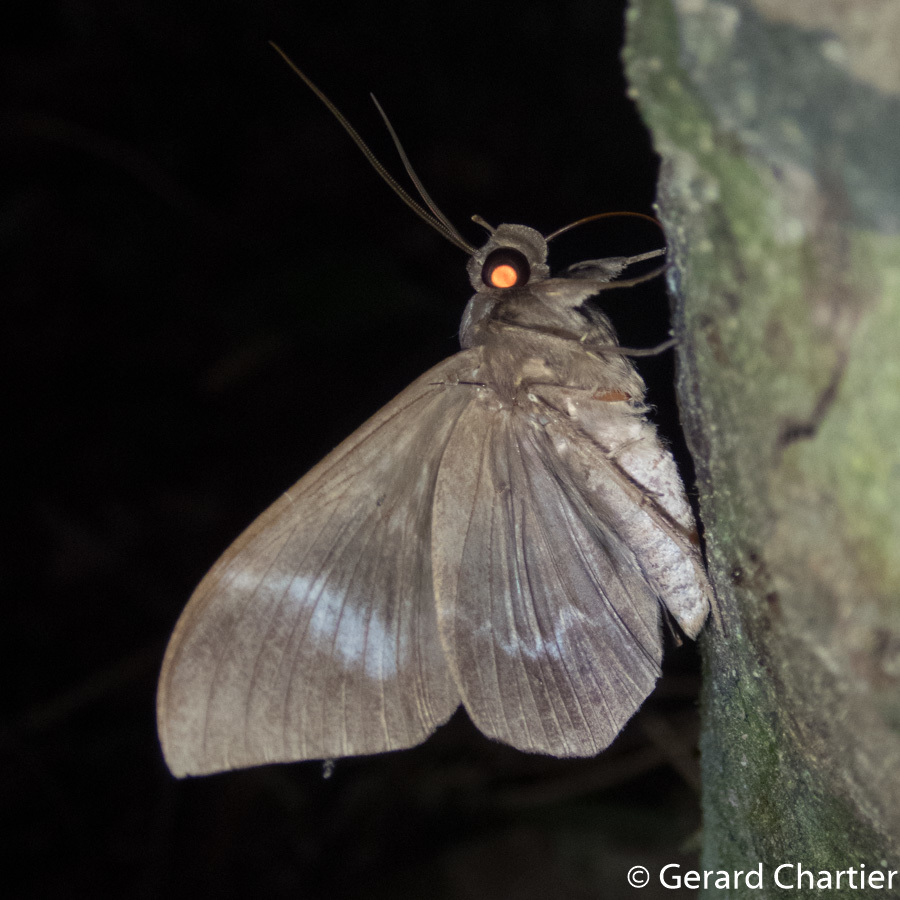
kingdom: Animalia
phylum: Arthropoda
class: Insecta
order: Lepidoptera
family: Erebidae
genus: Ischyja
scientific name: Ischyja inferna
